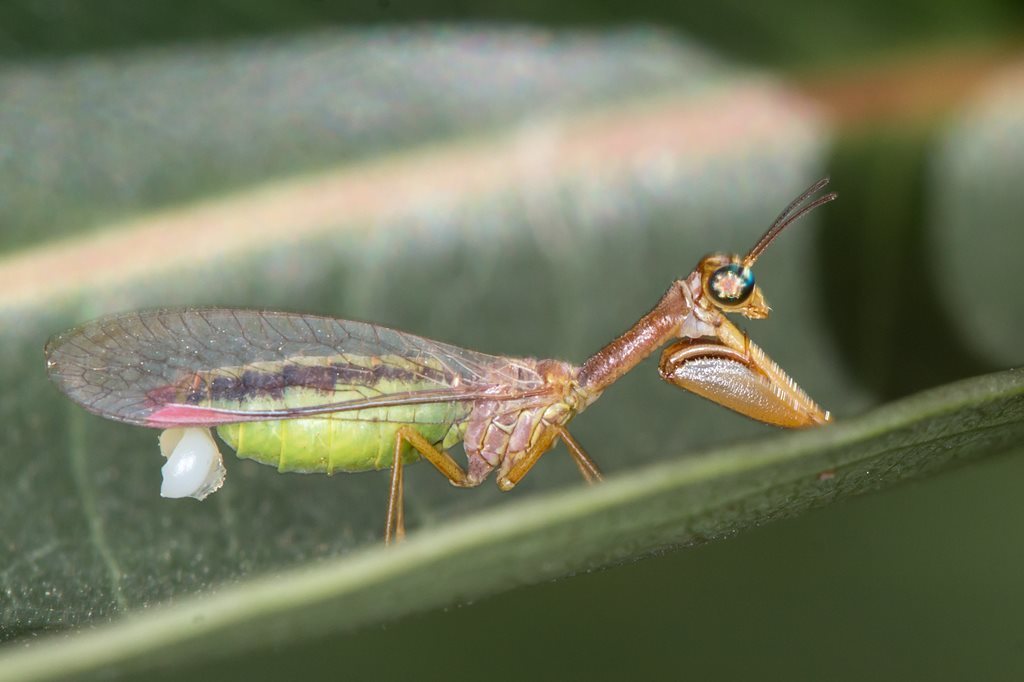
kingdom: Animalia
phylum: Arthropoda
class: Insecta
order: Neuroptera
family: Mantispidae
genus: Campion
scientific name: Campion tenuistriga
